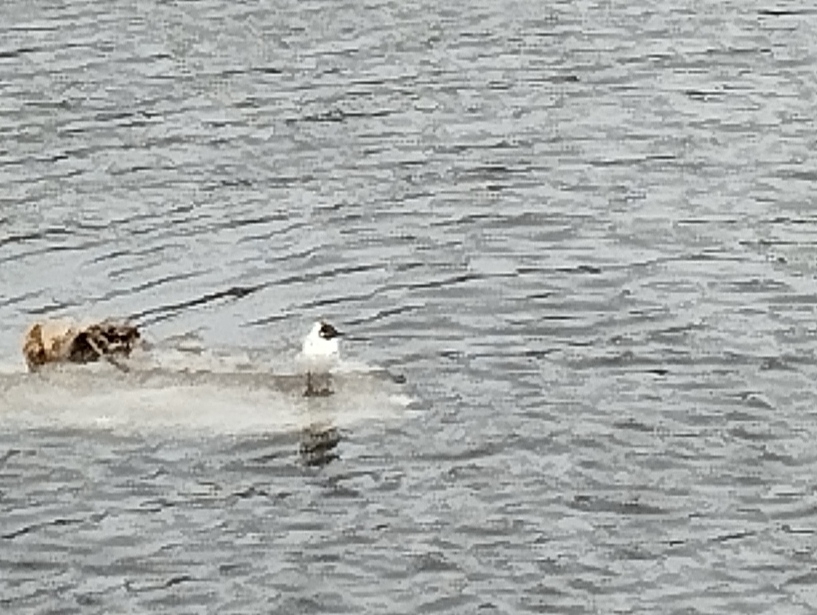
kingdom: Animalia
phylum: Chordata
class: Aves
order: Charadriiformes
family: Laridae
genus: Chroicocephalus
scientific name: Chroicocephalus ridibundus
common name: Black-headed gull
